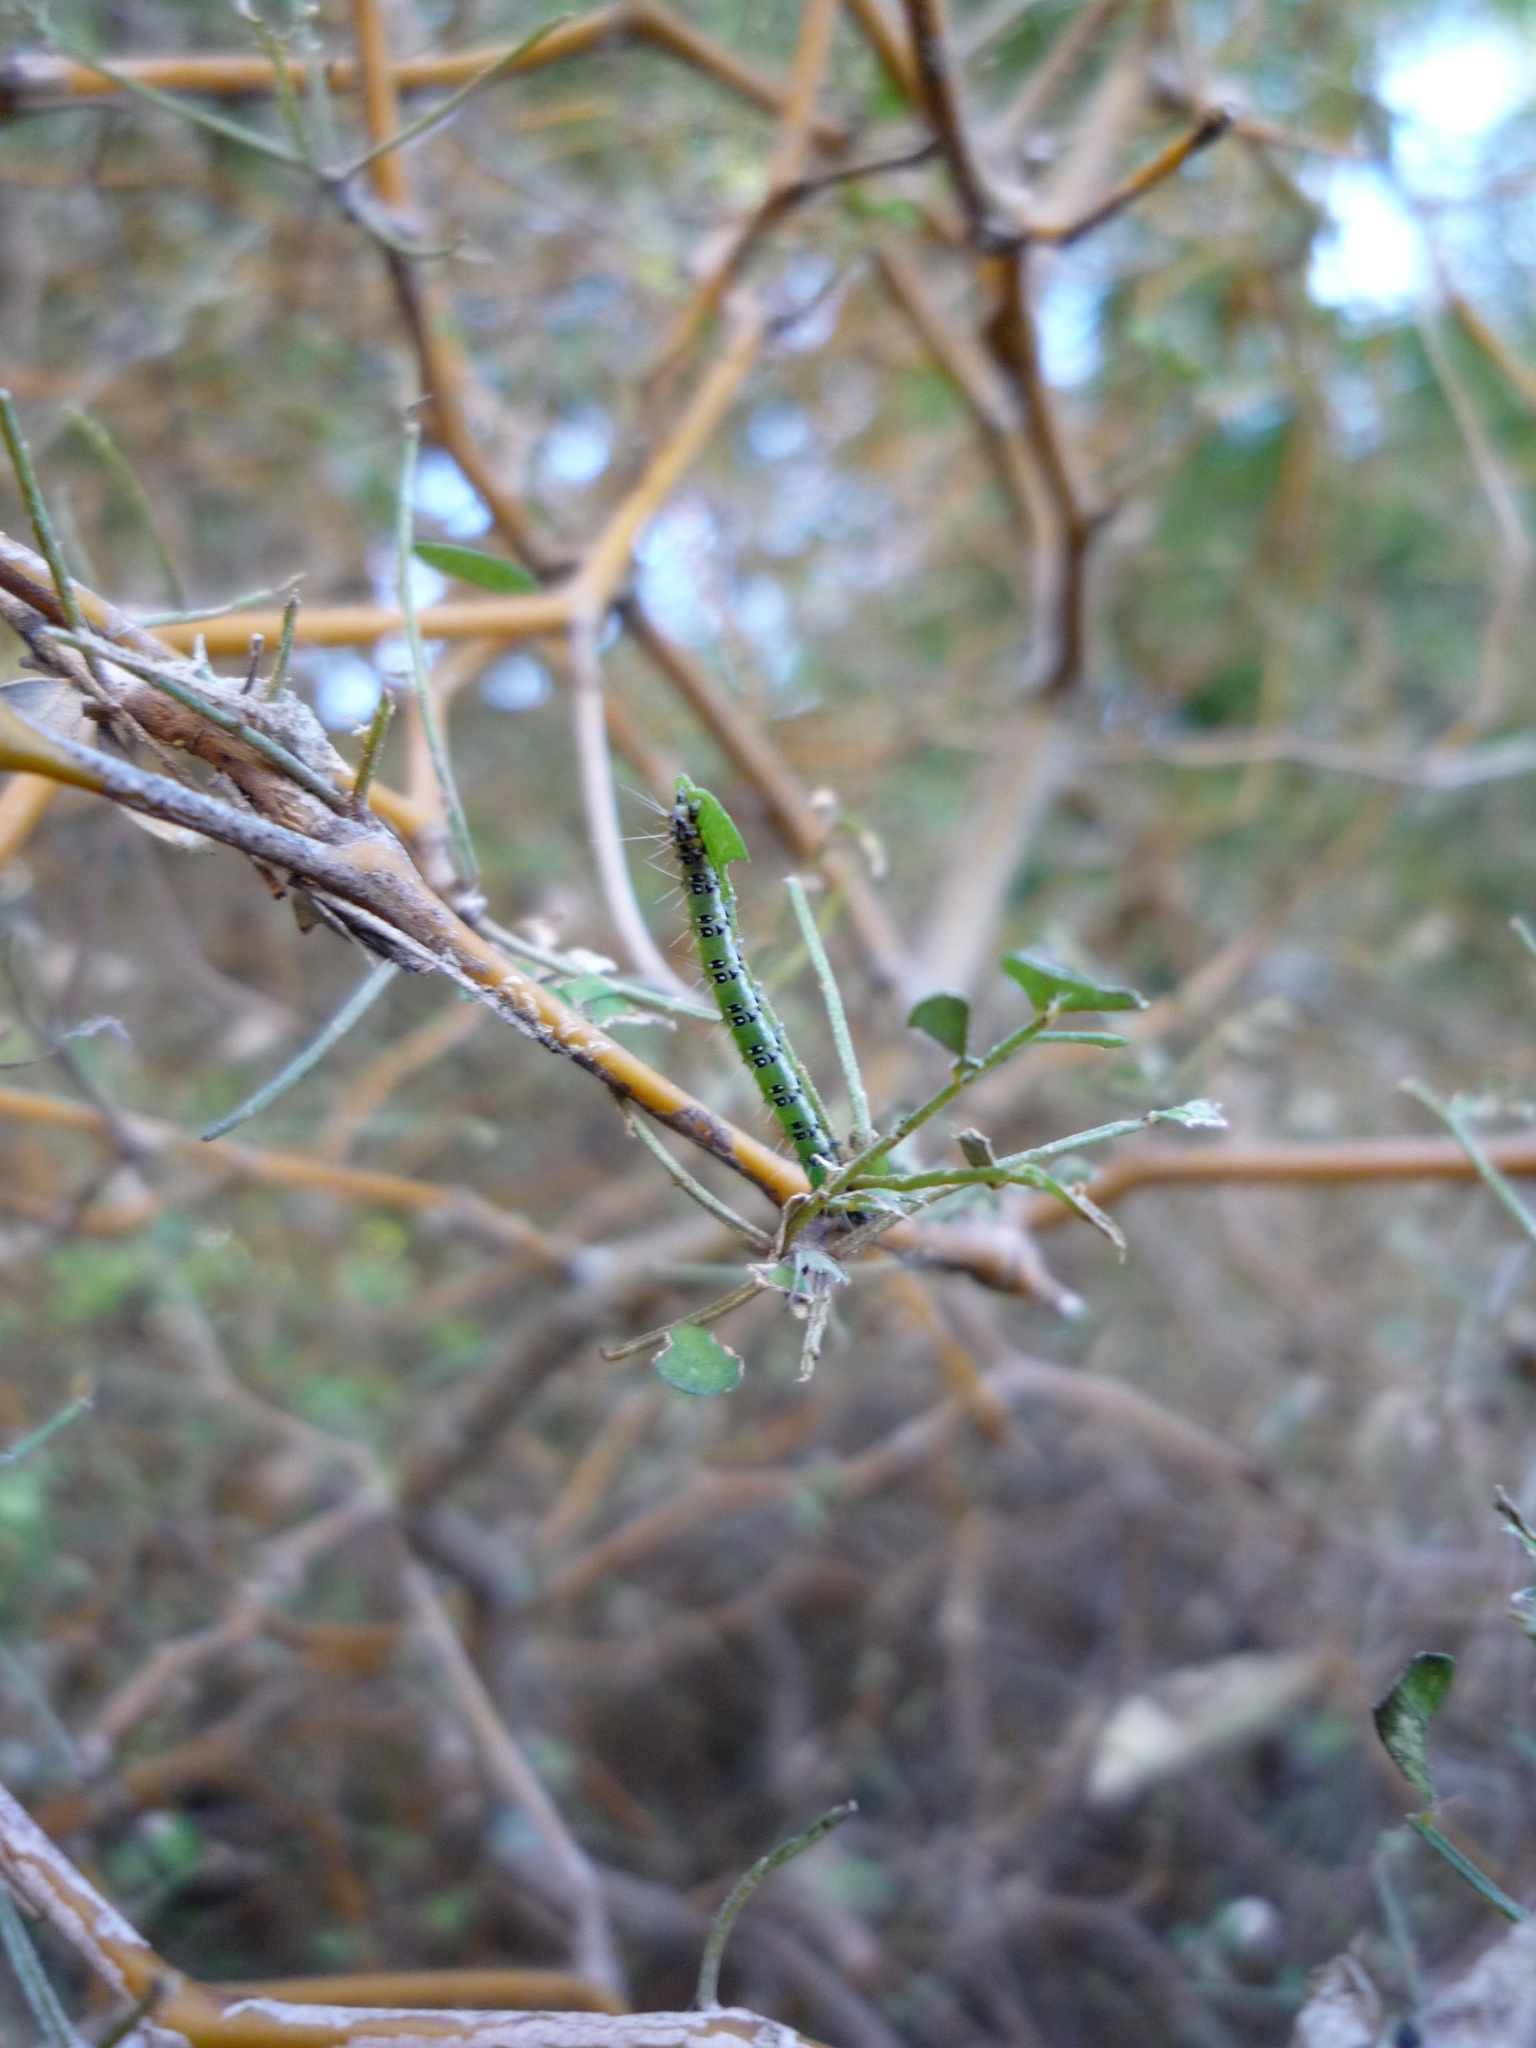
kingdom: Animalia
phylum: Arthropoda
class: Insecta
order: Lepidoptera
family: Crambidae
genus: Uresiphita
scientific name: Uresiphita
